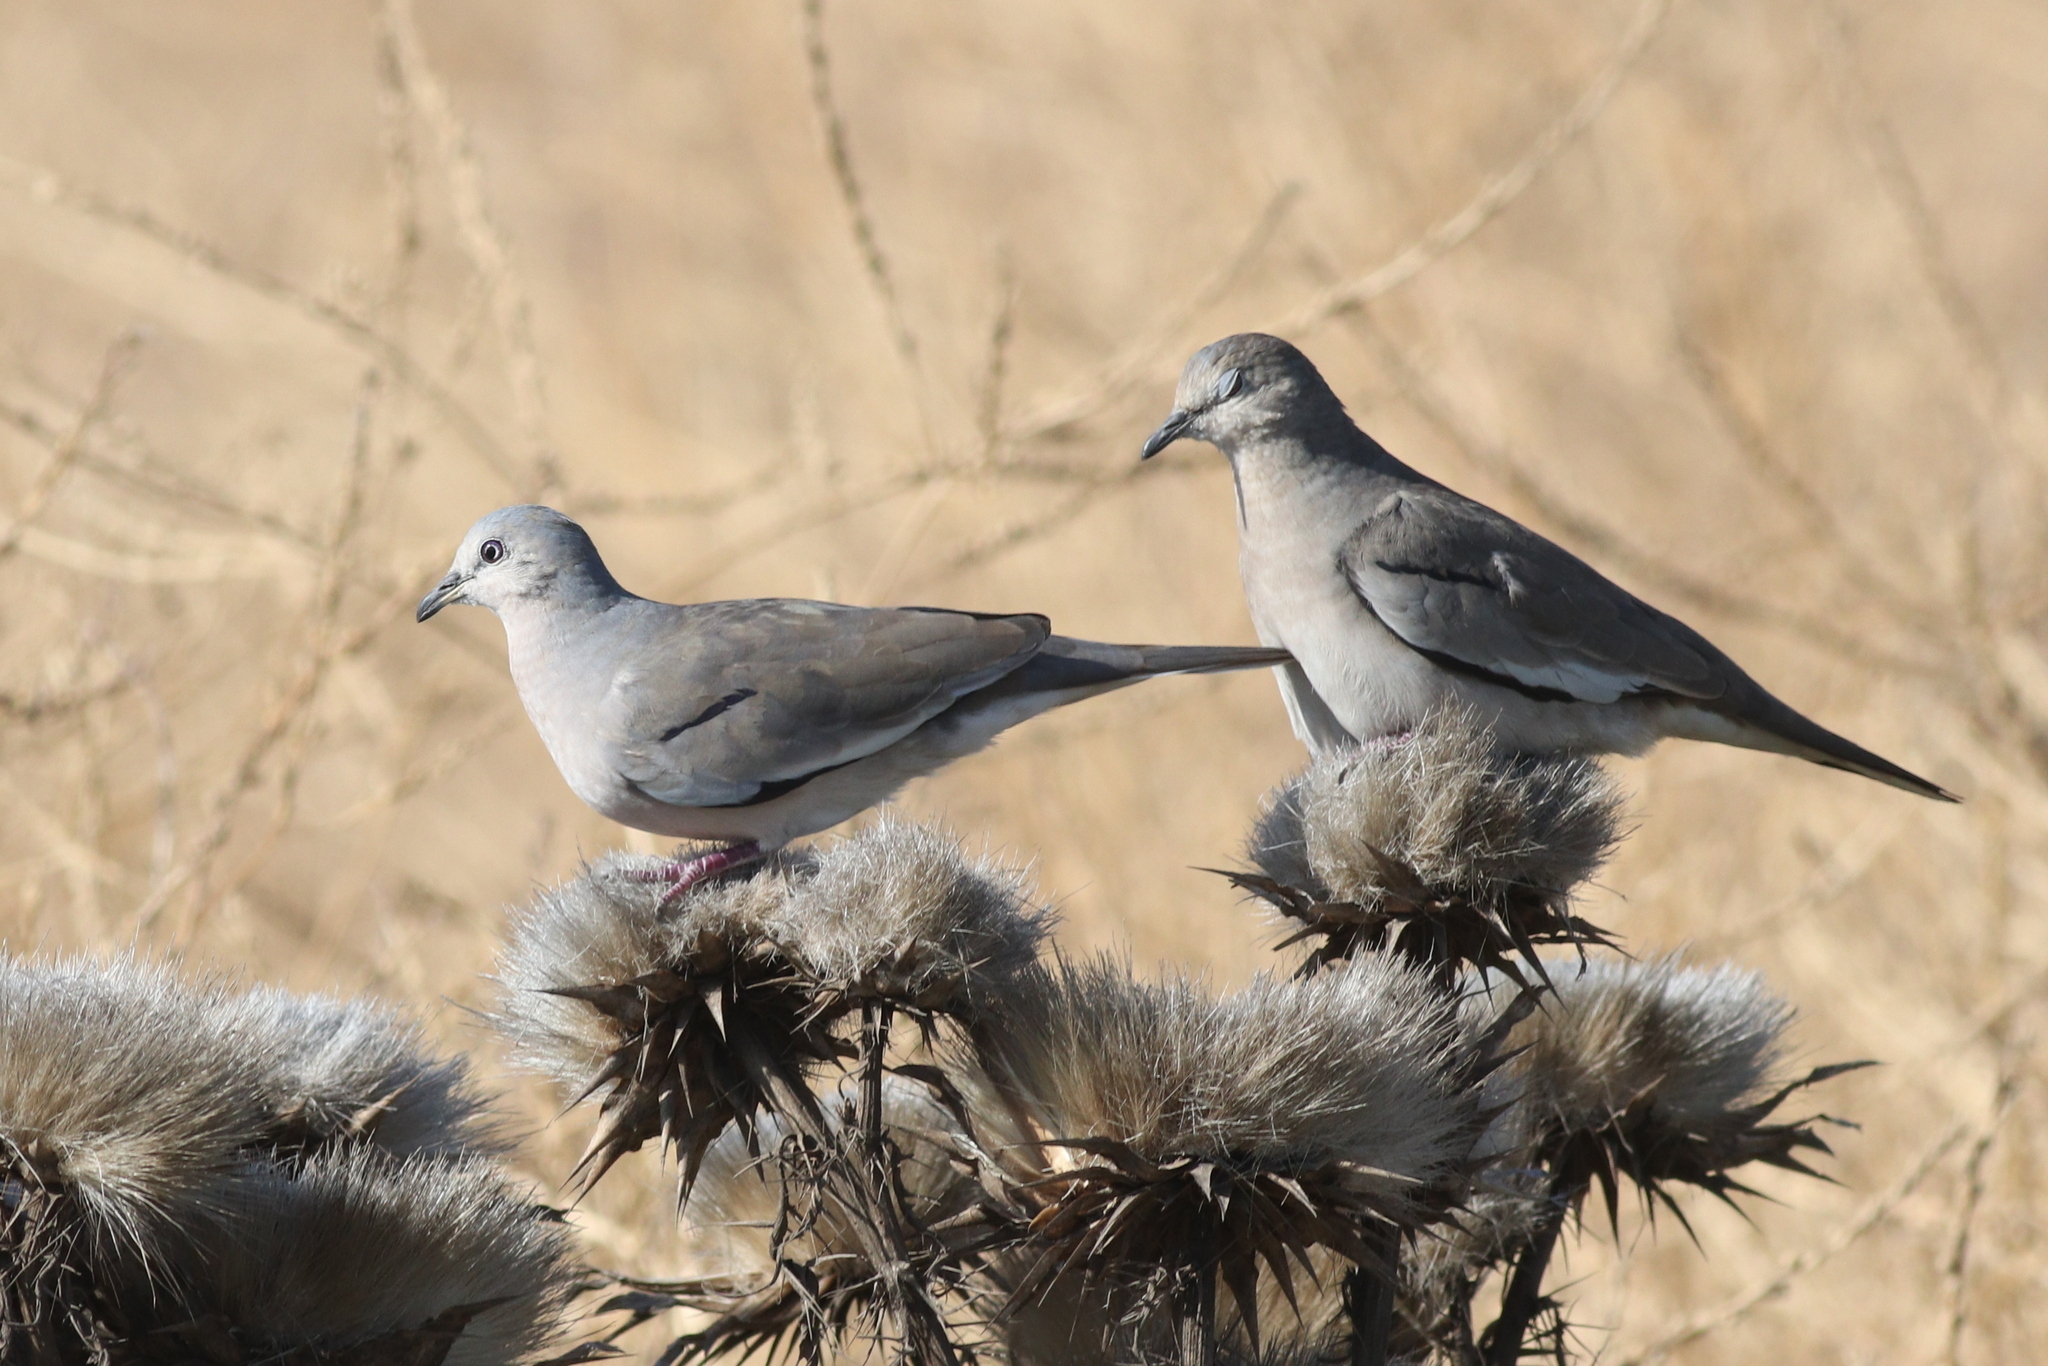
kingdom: Animalia
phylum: Chordata
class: Aves
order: Columbiformes
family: Columbidae
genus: Columbina
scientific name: Columbina picui
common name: Picui ground dove
